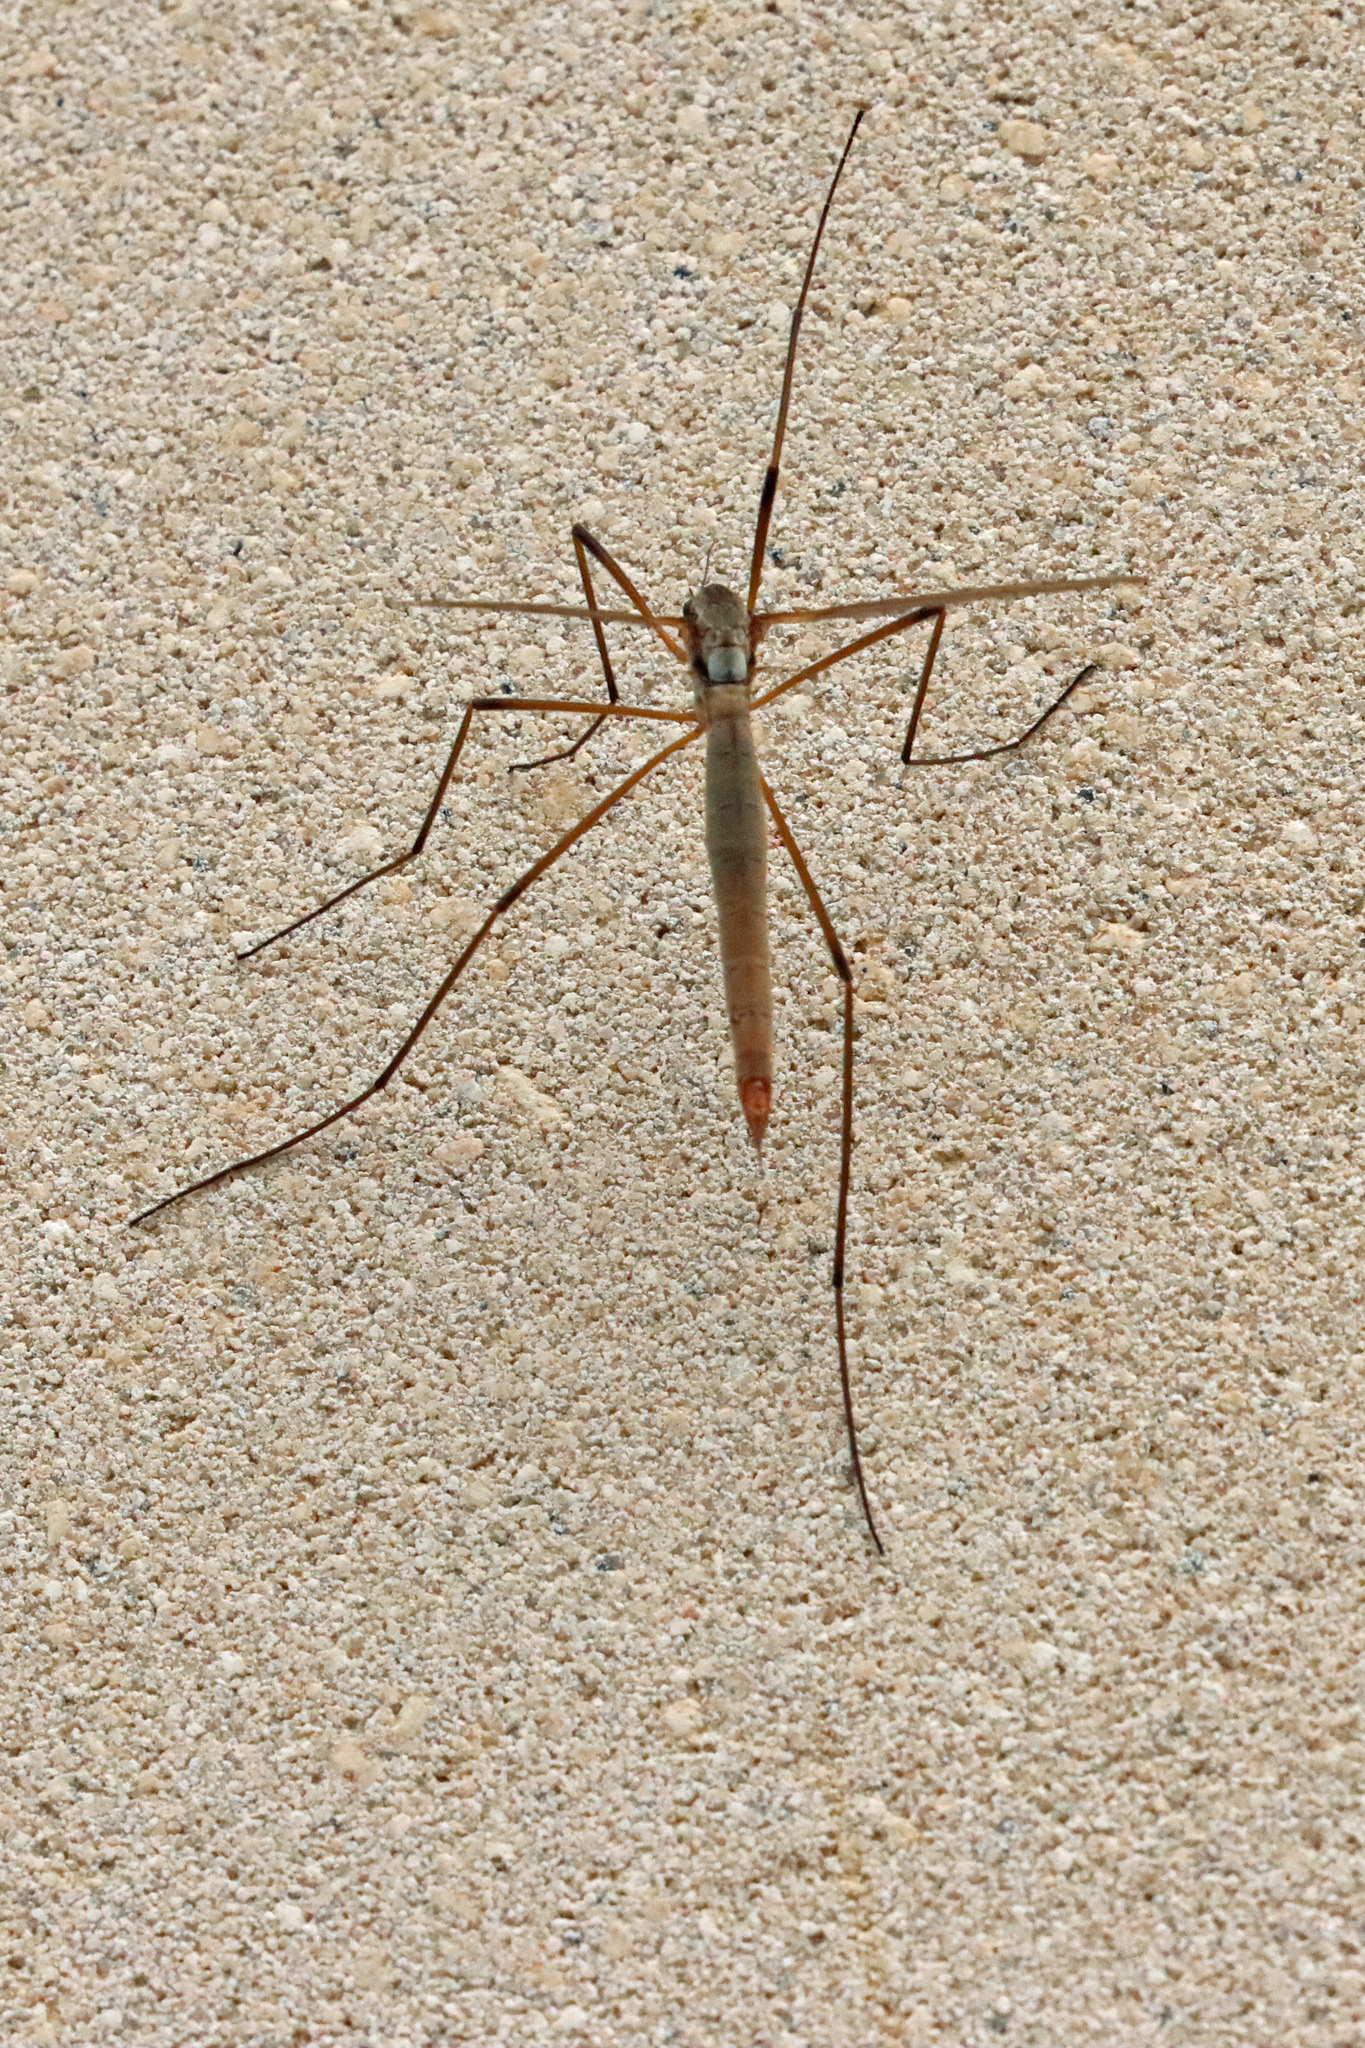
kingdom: Animalia
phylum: Arthropoda
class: Insecta
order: Diptera
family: Tipulidae
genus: Tipula
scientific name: Tipula paludosa
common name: European cranefly
